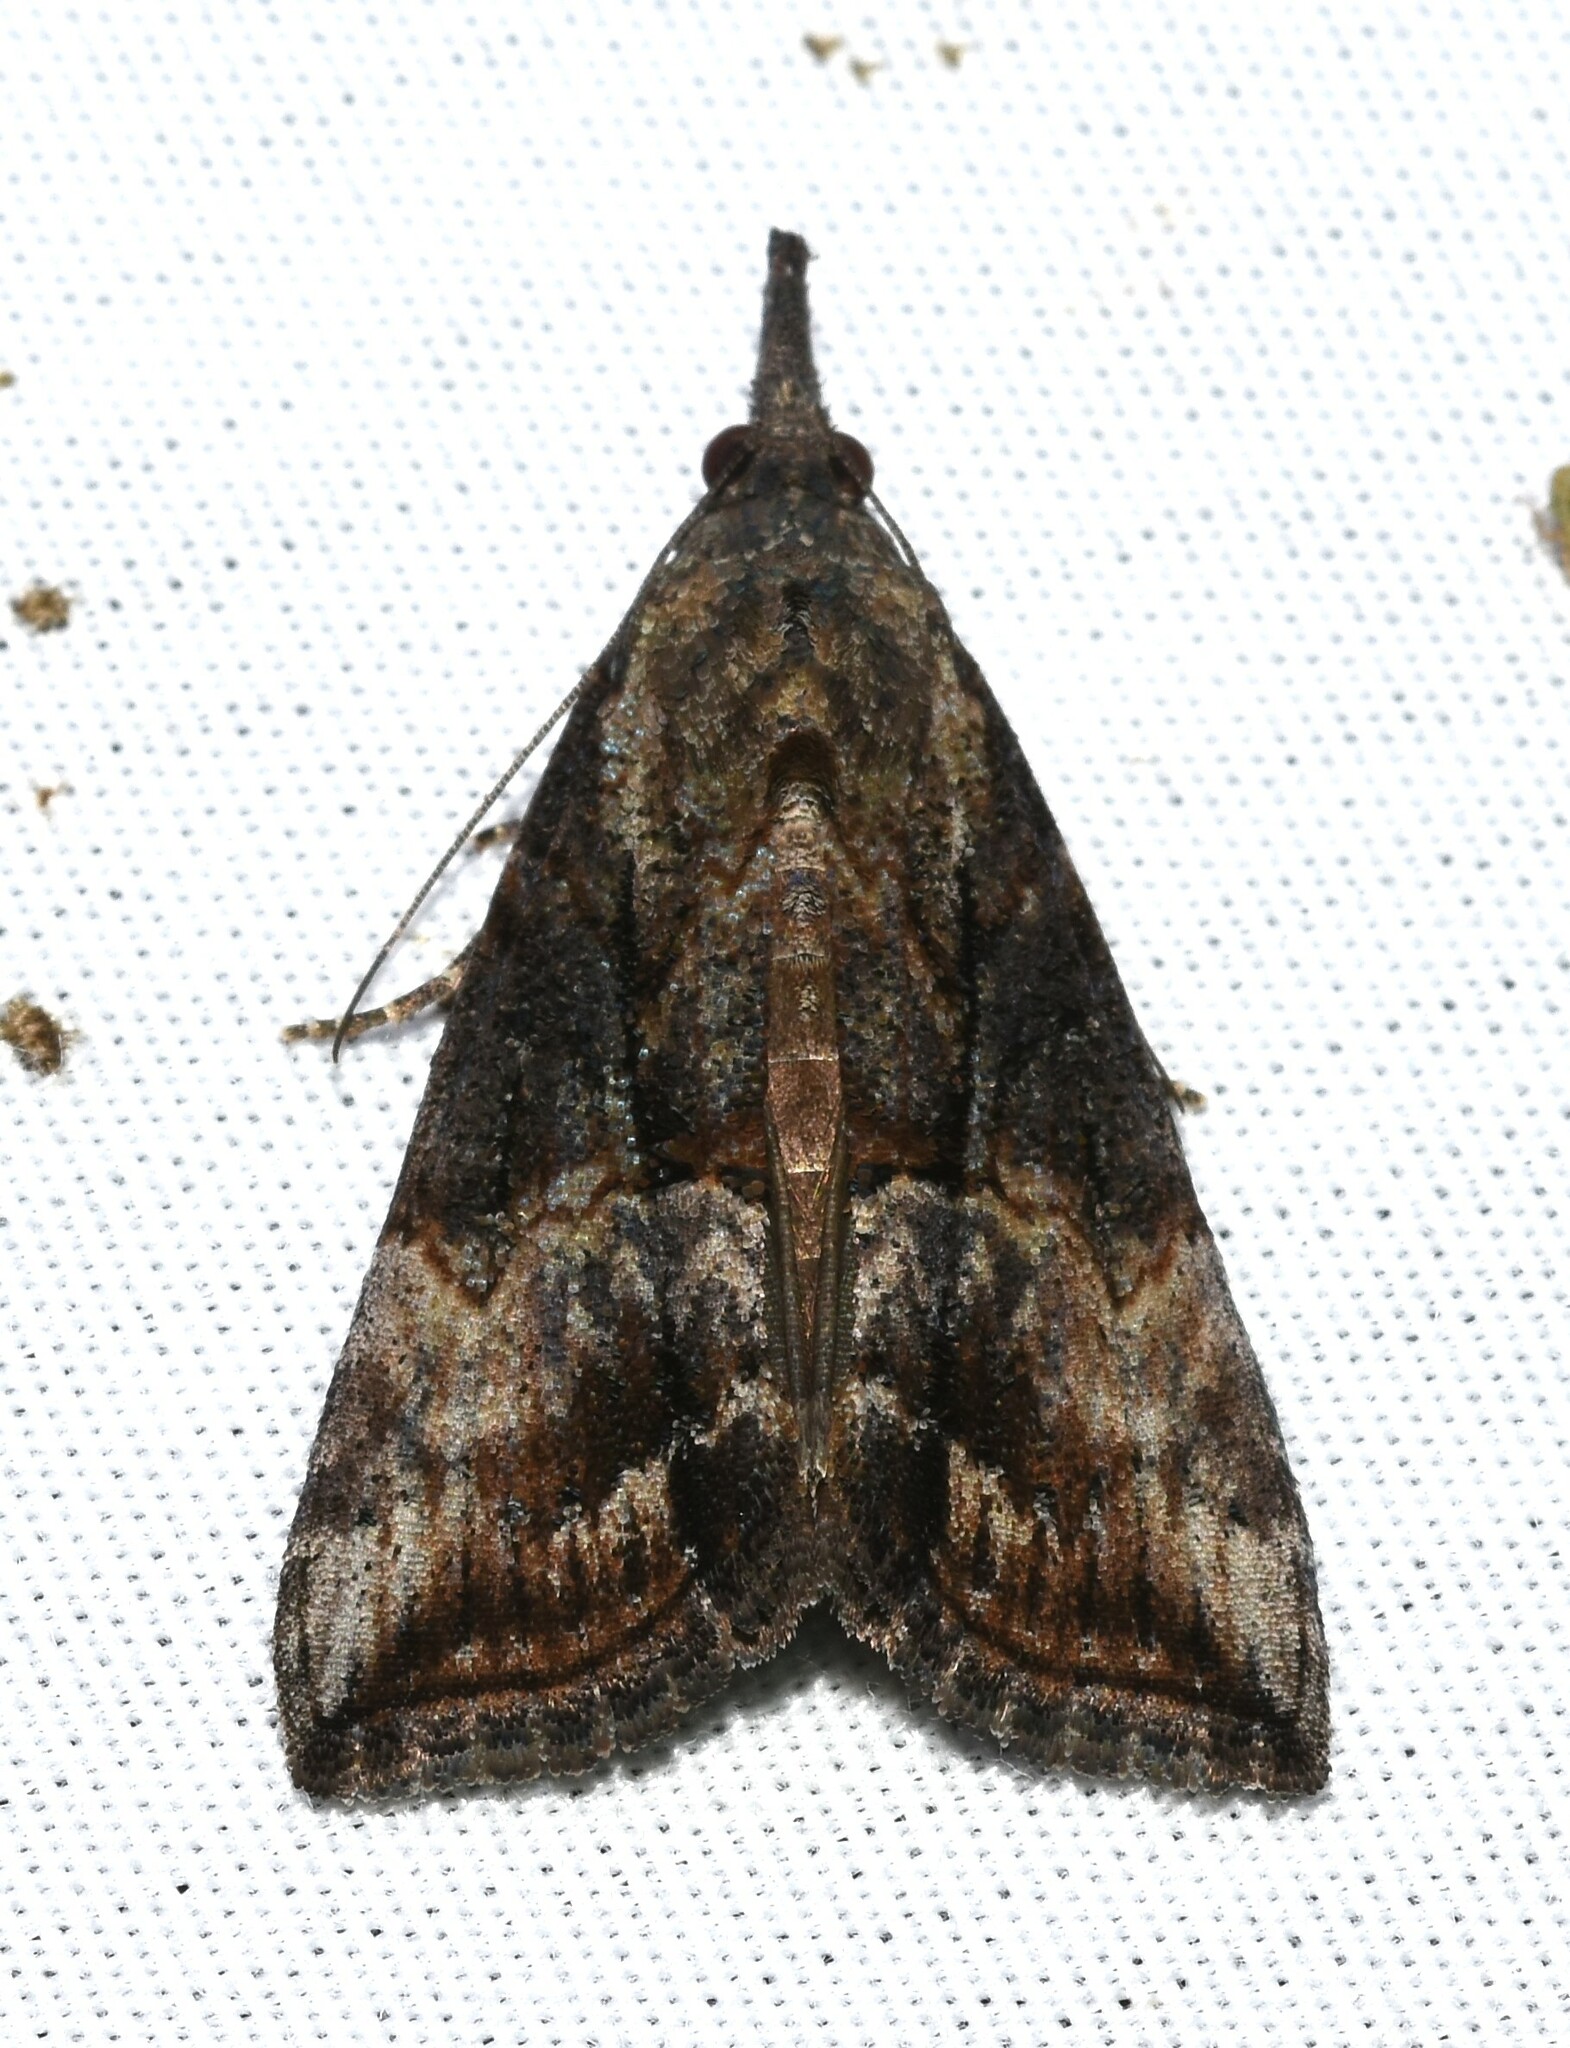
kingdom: Animalia
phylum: Arthropoda
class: Insecta
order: Lepidoptera
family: Erebidae
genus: Hypena
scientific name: Hypena scabra
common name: Green cloverworm
